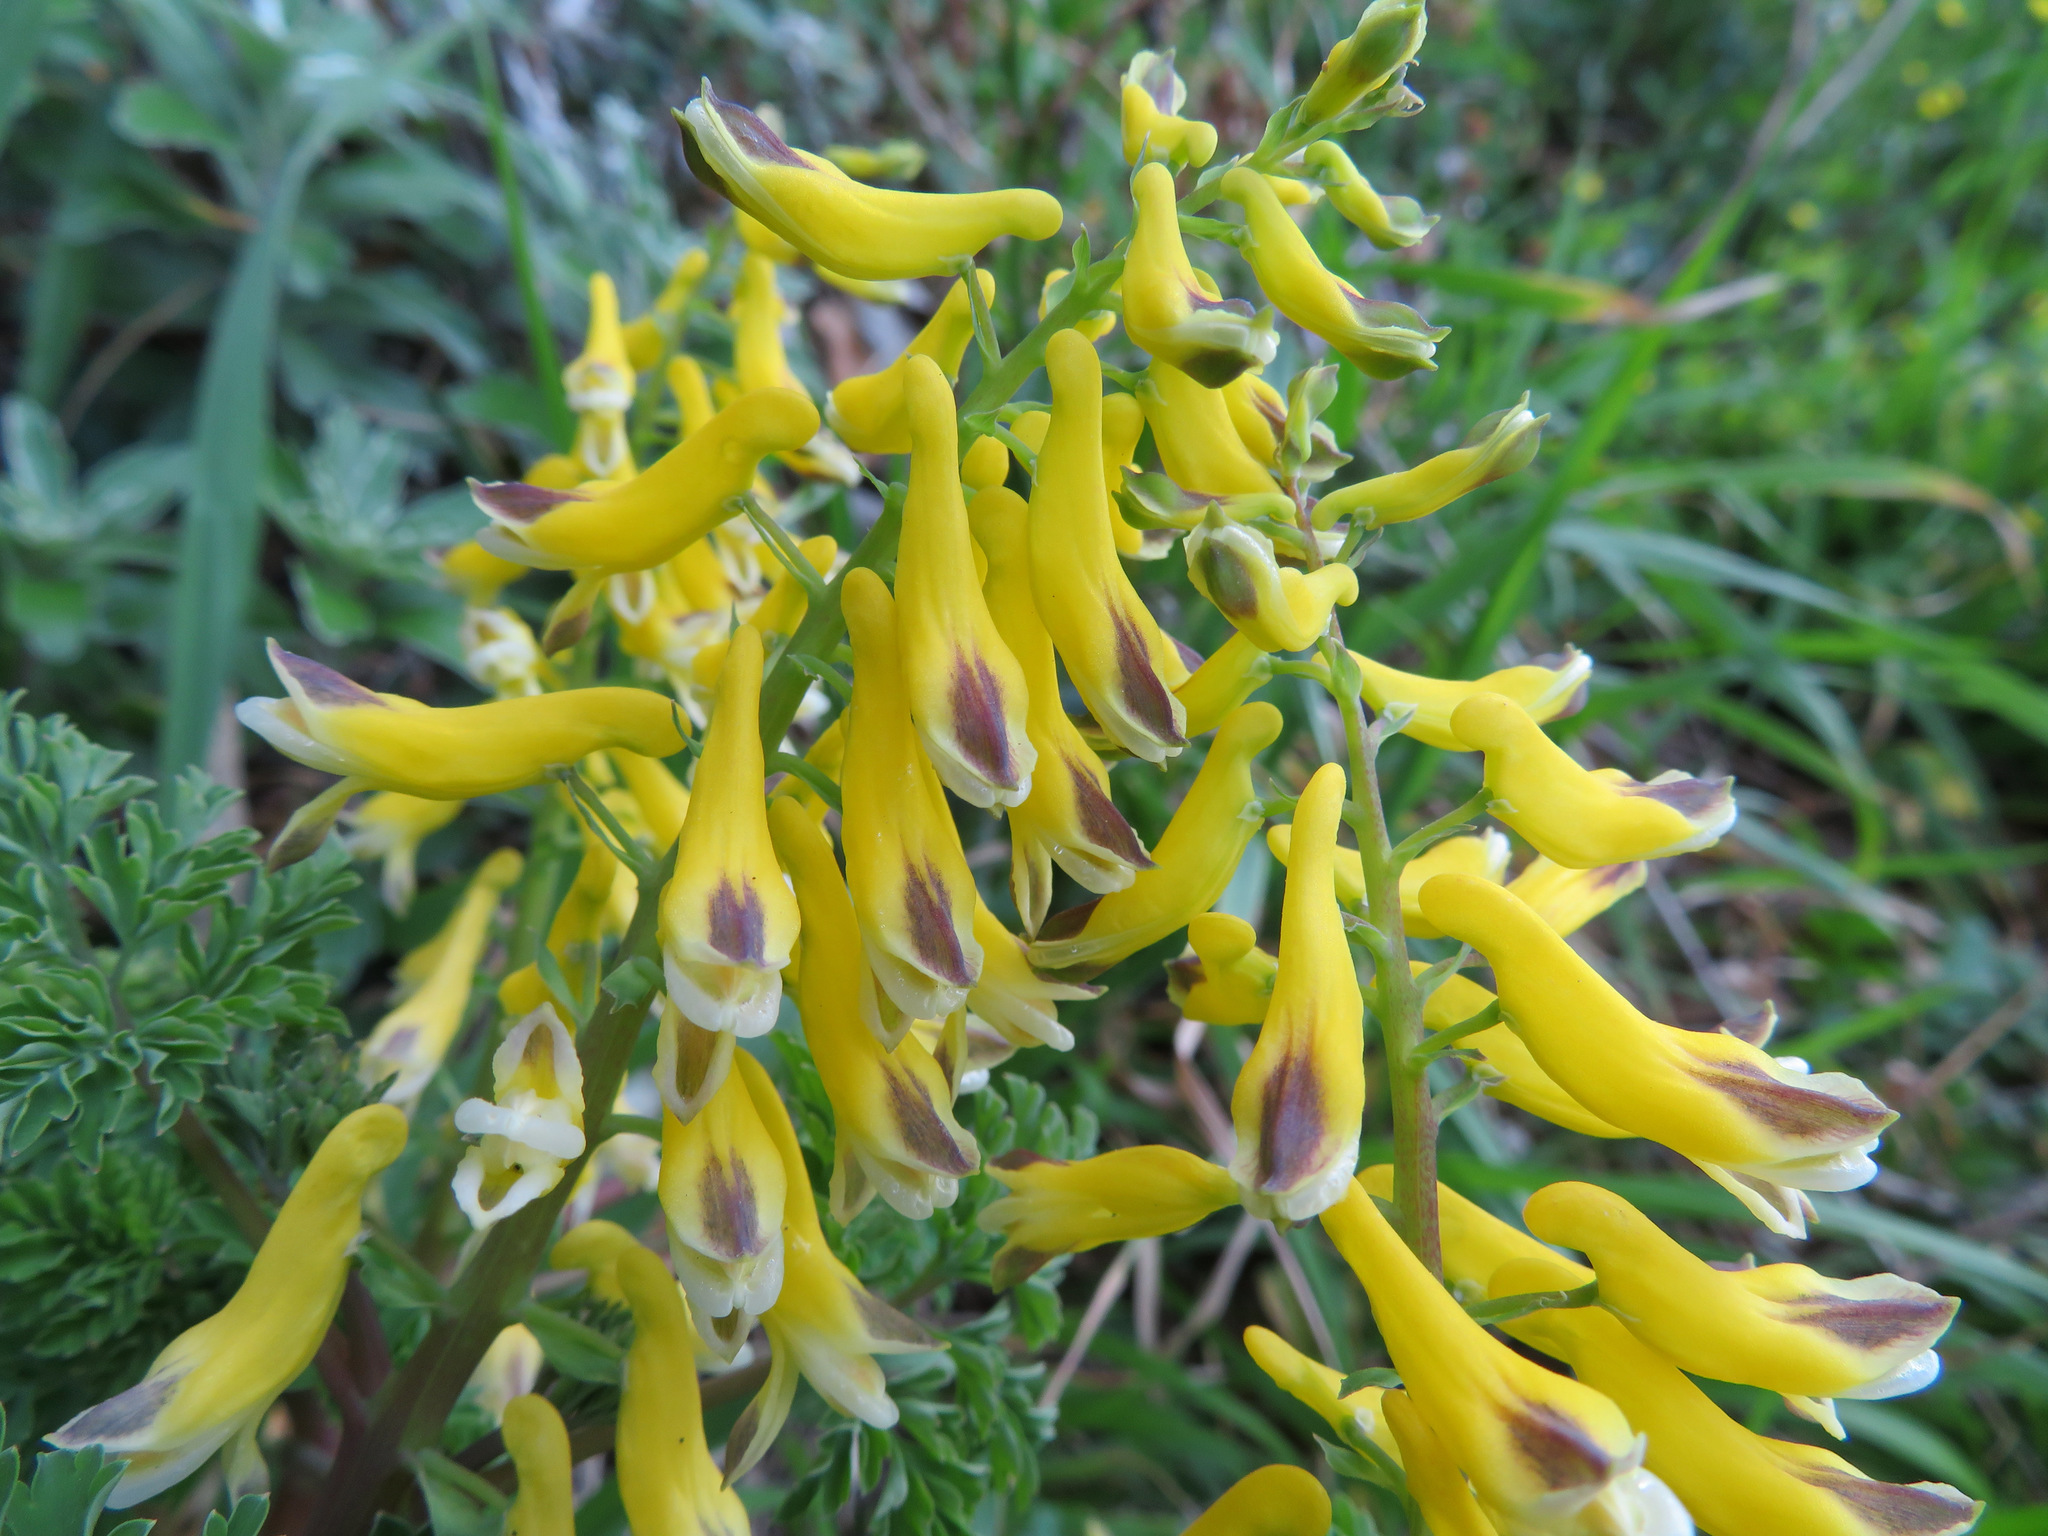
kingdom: Plantae
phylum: Tracheophyta
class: Magnoliopsida
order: Ranunculales
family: Papaveraceae
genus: Corydalis
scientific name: Corydalis platycarpa
